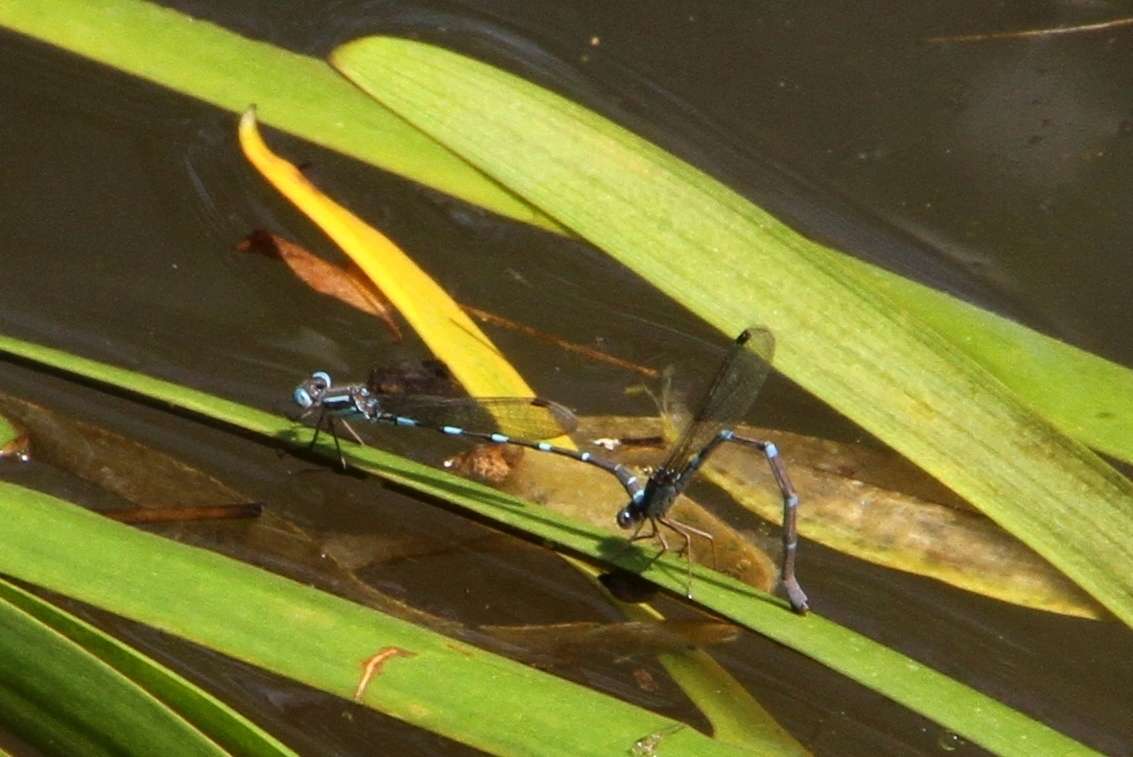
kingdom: Animalia
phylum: Arthropoda
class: Insecta
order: Odonata
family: Lestidae
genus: Austrolestes
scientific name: Austrolestes leda
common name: Wandering ringtail
